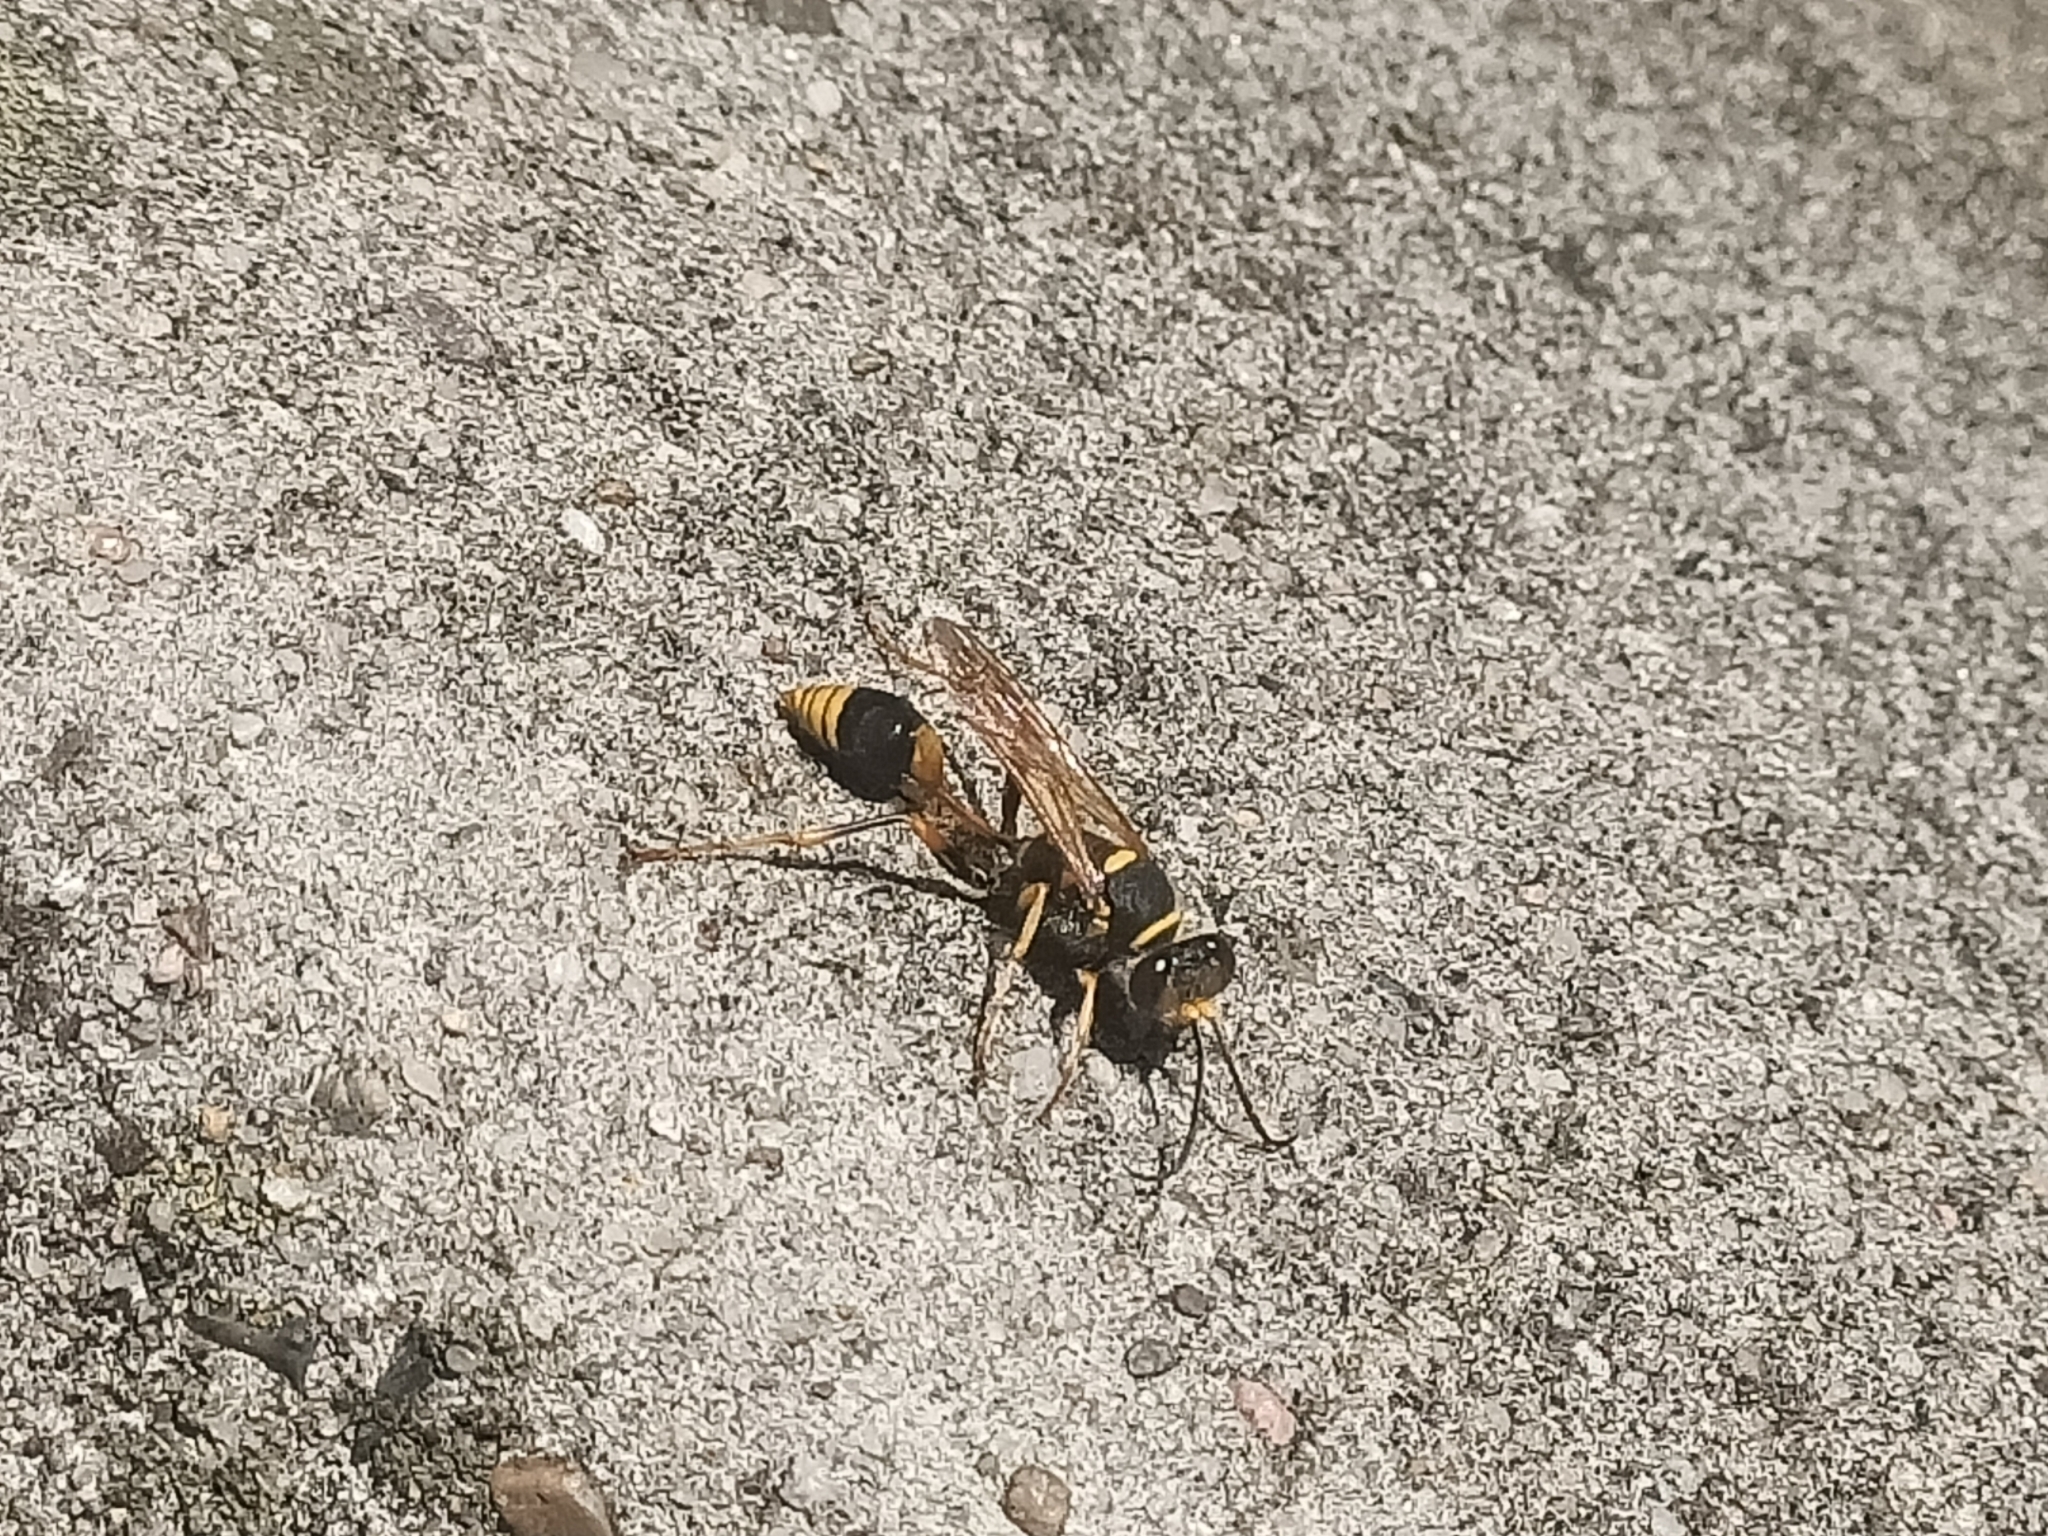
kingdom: Animalia
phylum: Arthropoda
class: Insecta
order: Hymenoptera
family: Sphecidae
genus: Sceliphron
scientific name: Sceliphron formosum
